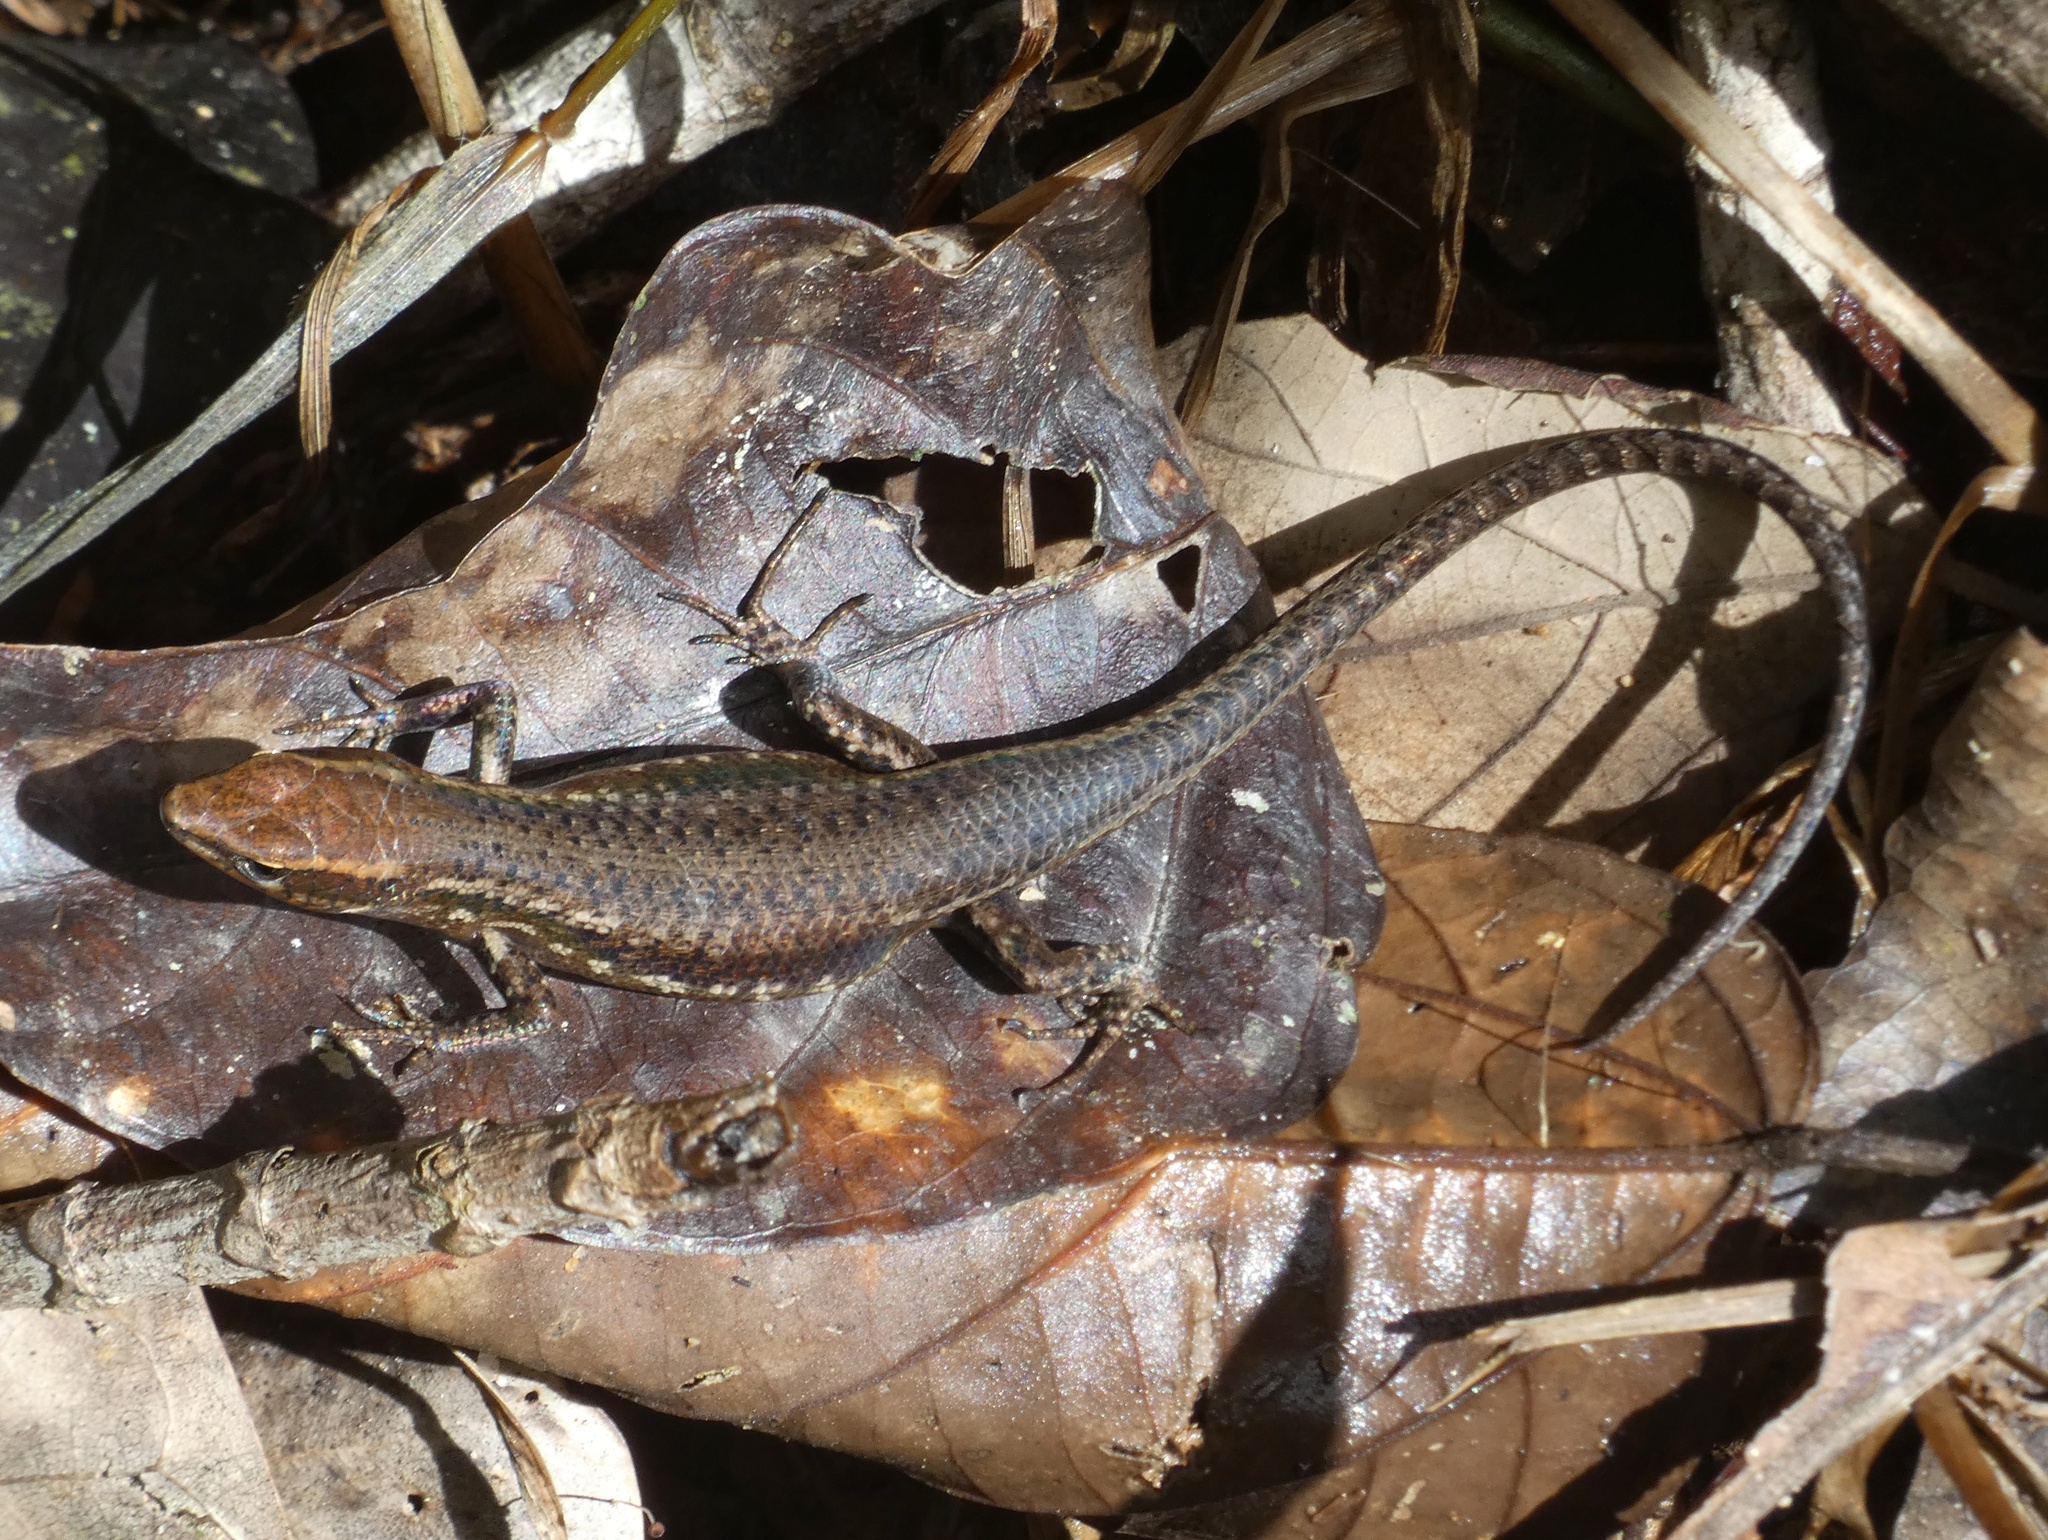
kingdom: Animalia
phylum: Chordata
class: Squamata
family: Scincidae
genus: Carlia
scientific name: Carlia crypta
